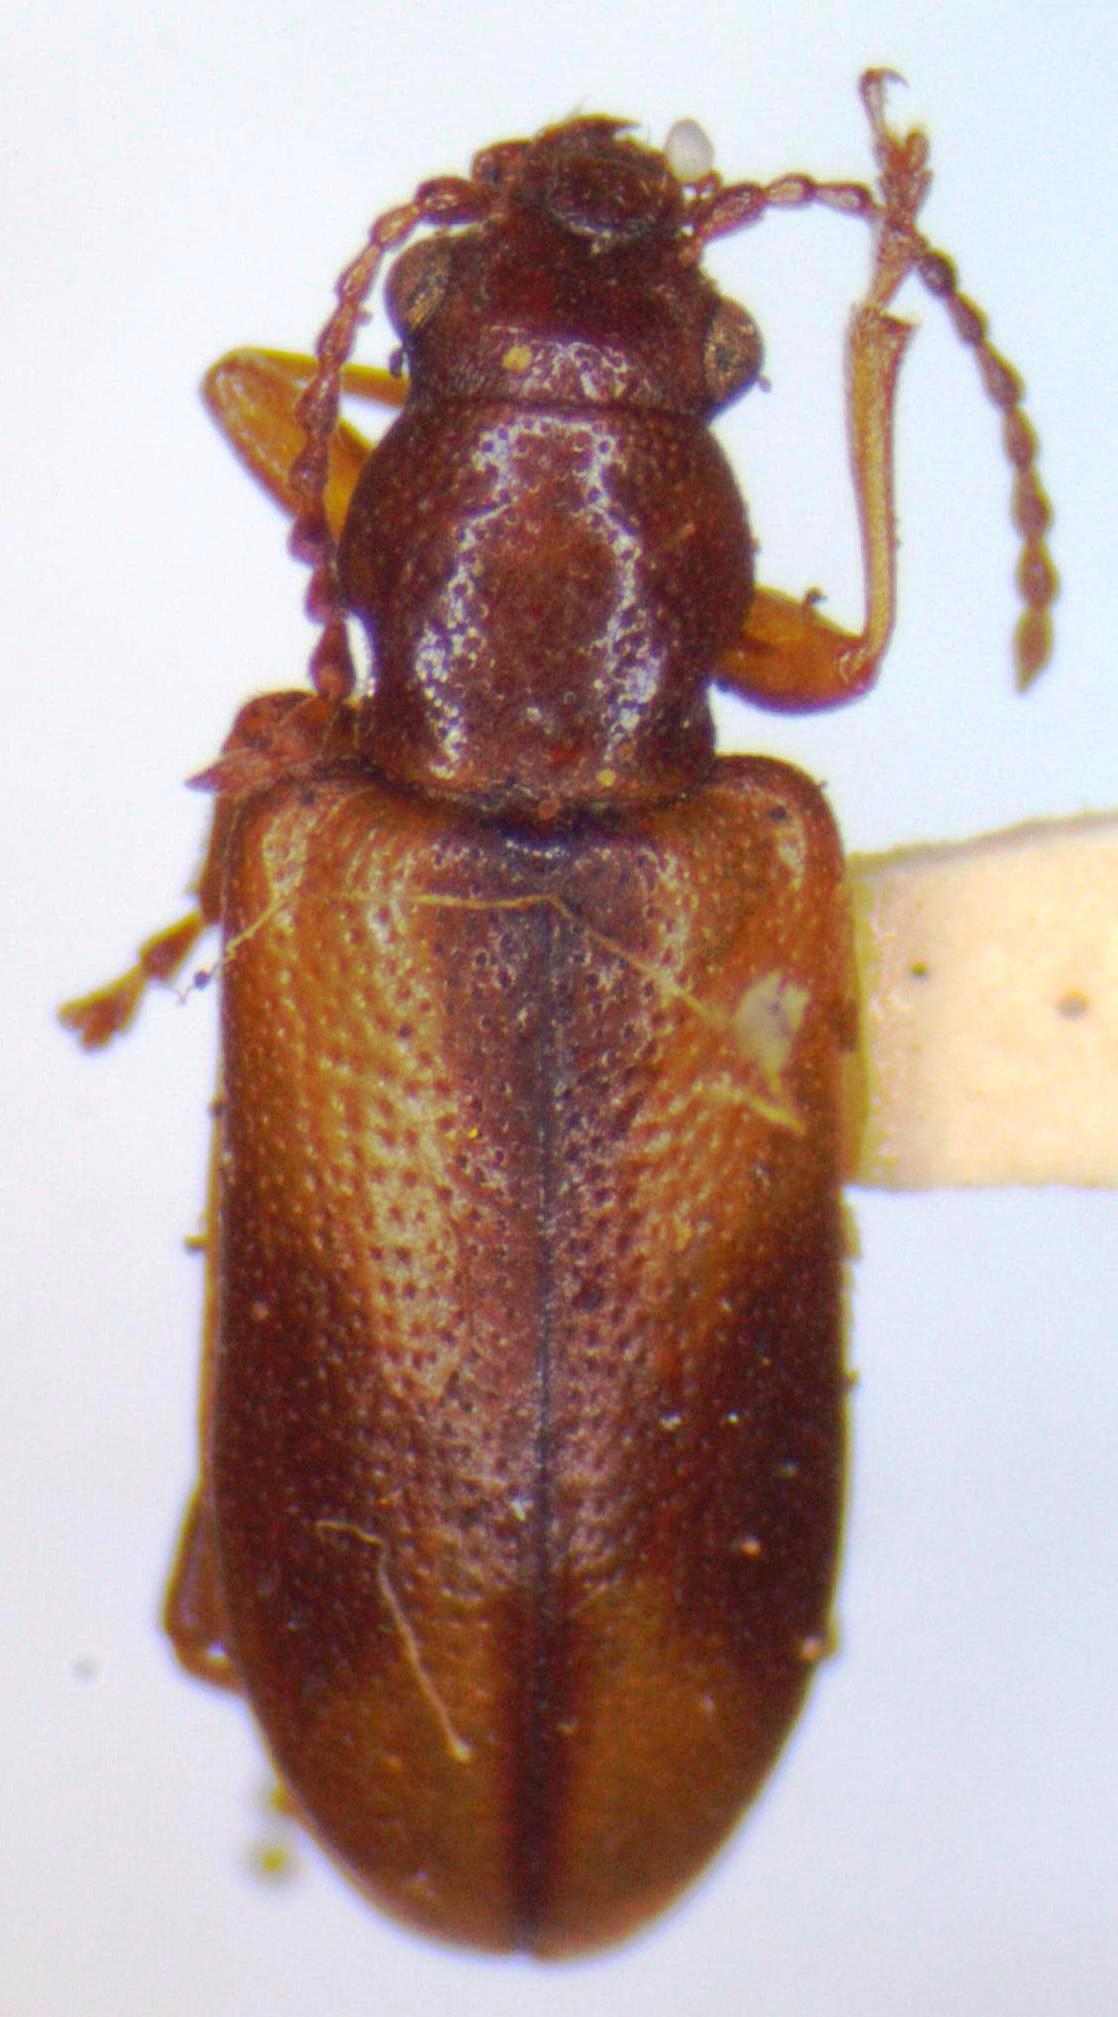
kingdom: Animalia
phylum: Arthropoda
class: Insecta
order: Coleoptera
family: Orsodacnidae
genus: Orsodacne
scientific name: Orsodacne atra
